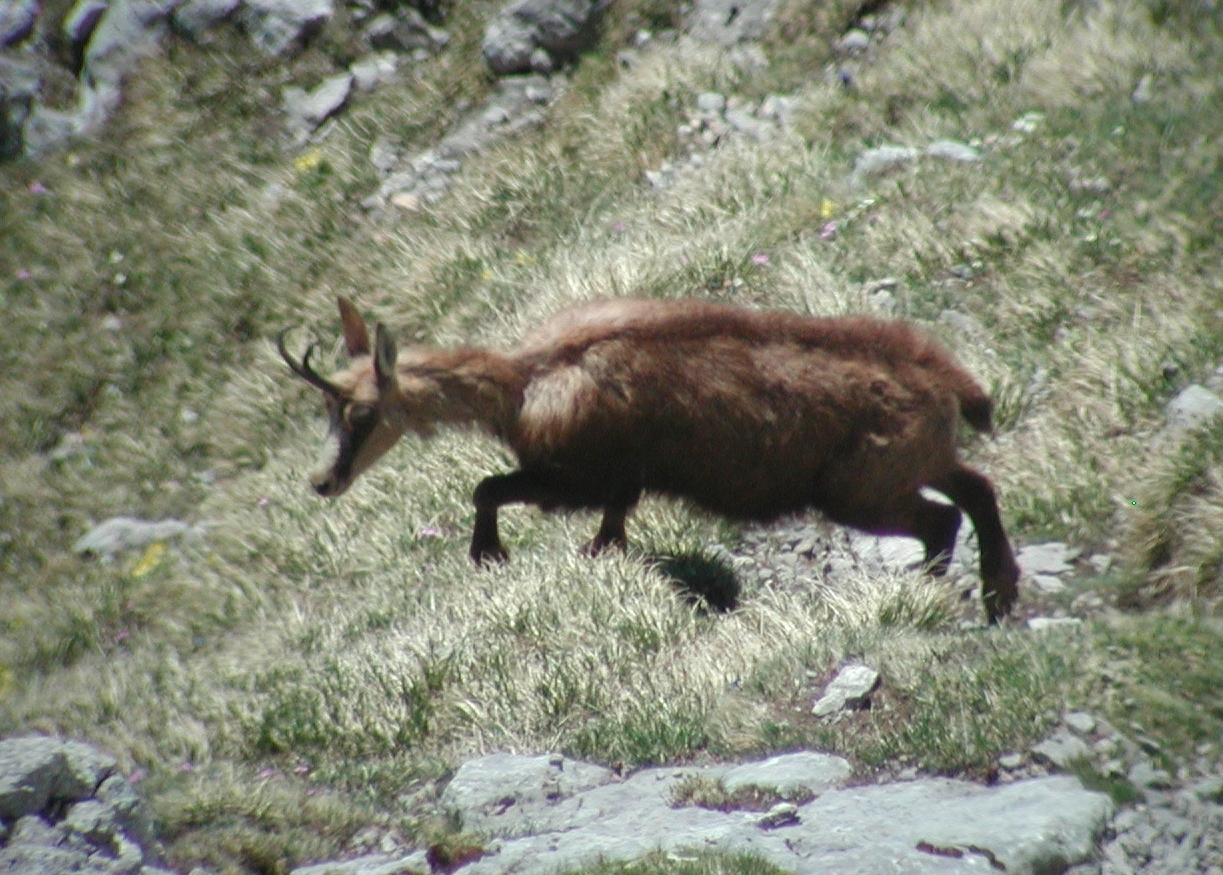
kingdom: Animalia
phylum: Chordata
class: Mammalia
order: Artiodactyla
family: Bovidae
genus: Rupicapra
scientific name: Rupicapra rupicapra
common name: Chamois
